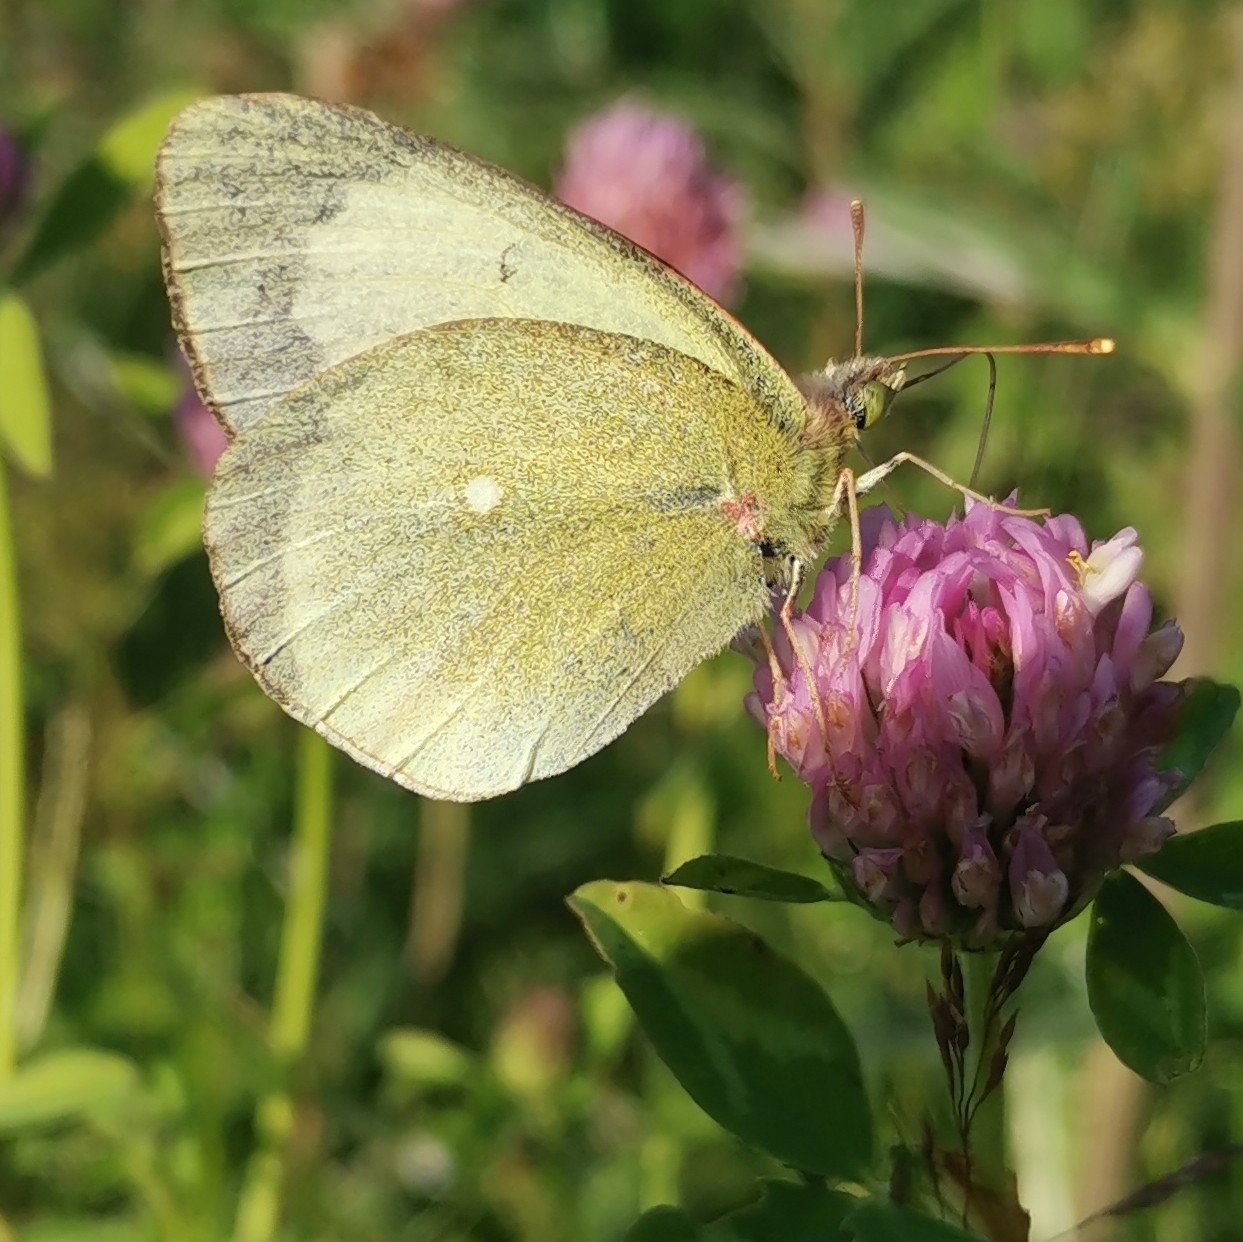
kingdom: Animalia
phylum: Arthropoda
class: Insecta
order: Lepidoptera
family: Pieridae
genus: Colias
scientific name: Colias palaeno
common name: Moorland clouded yellow
